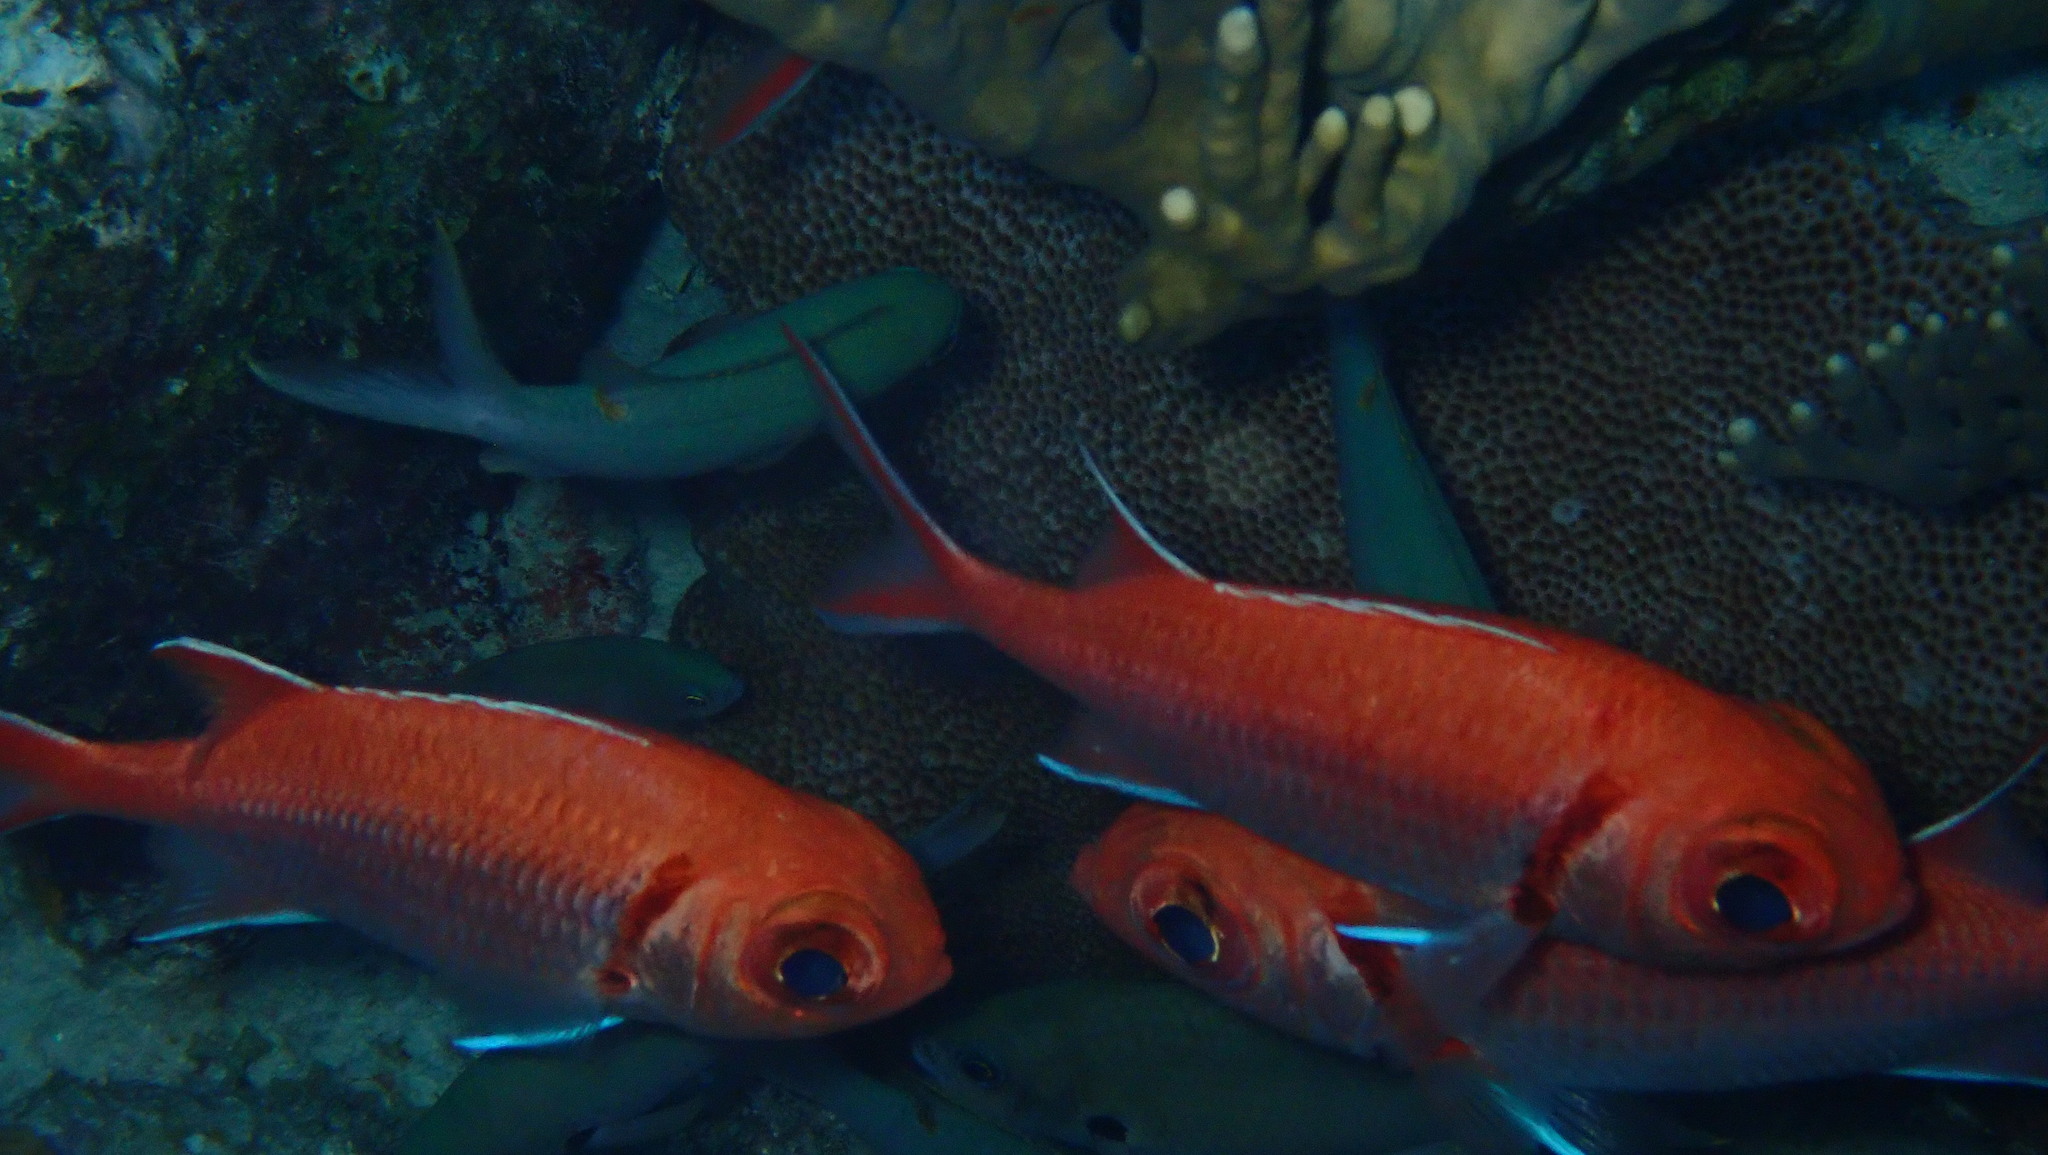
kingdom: Animalia
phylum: Chordata
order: Beryciformes
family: Holocentridae
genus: Myripristis
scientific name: Myripristis jacobus
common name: Blackbar soldierfish
